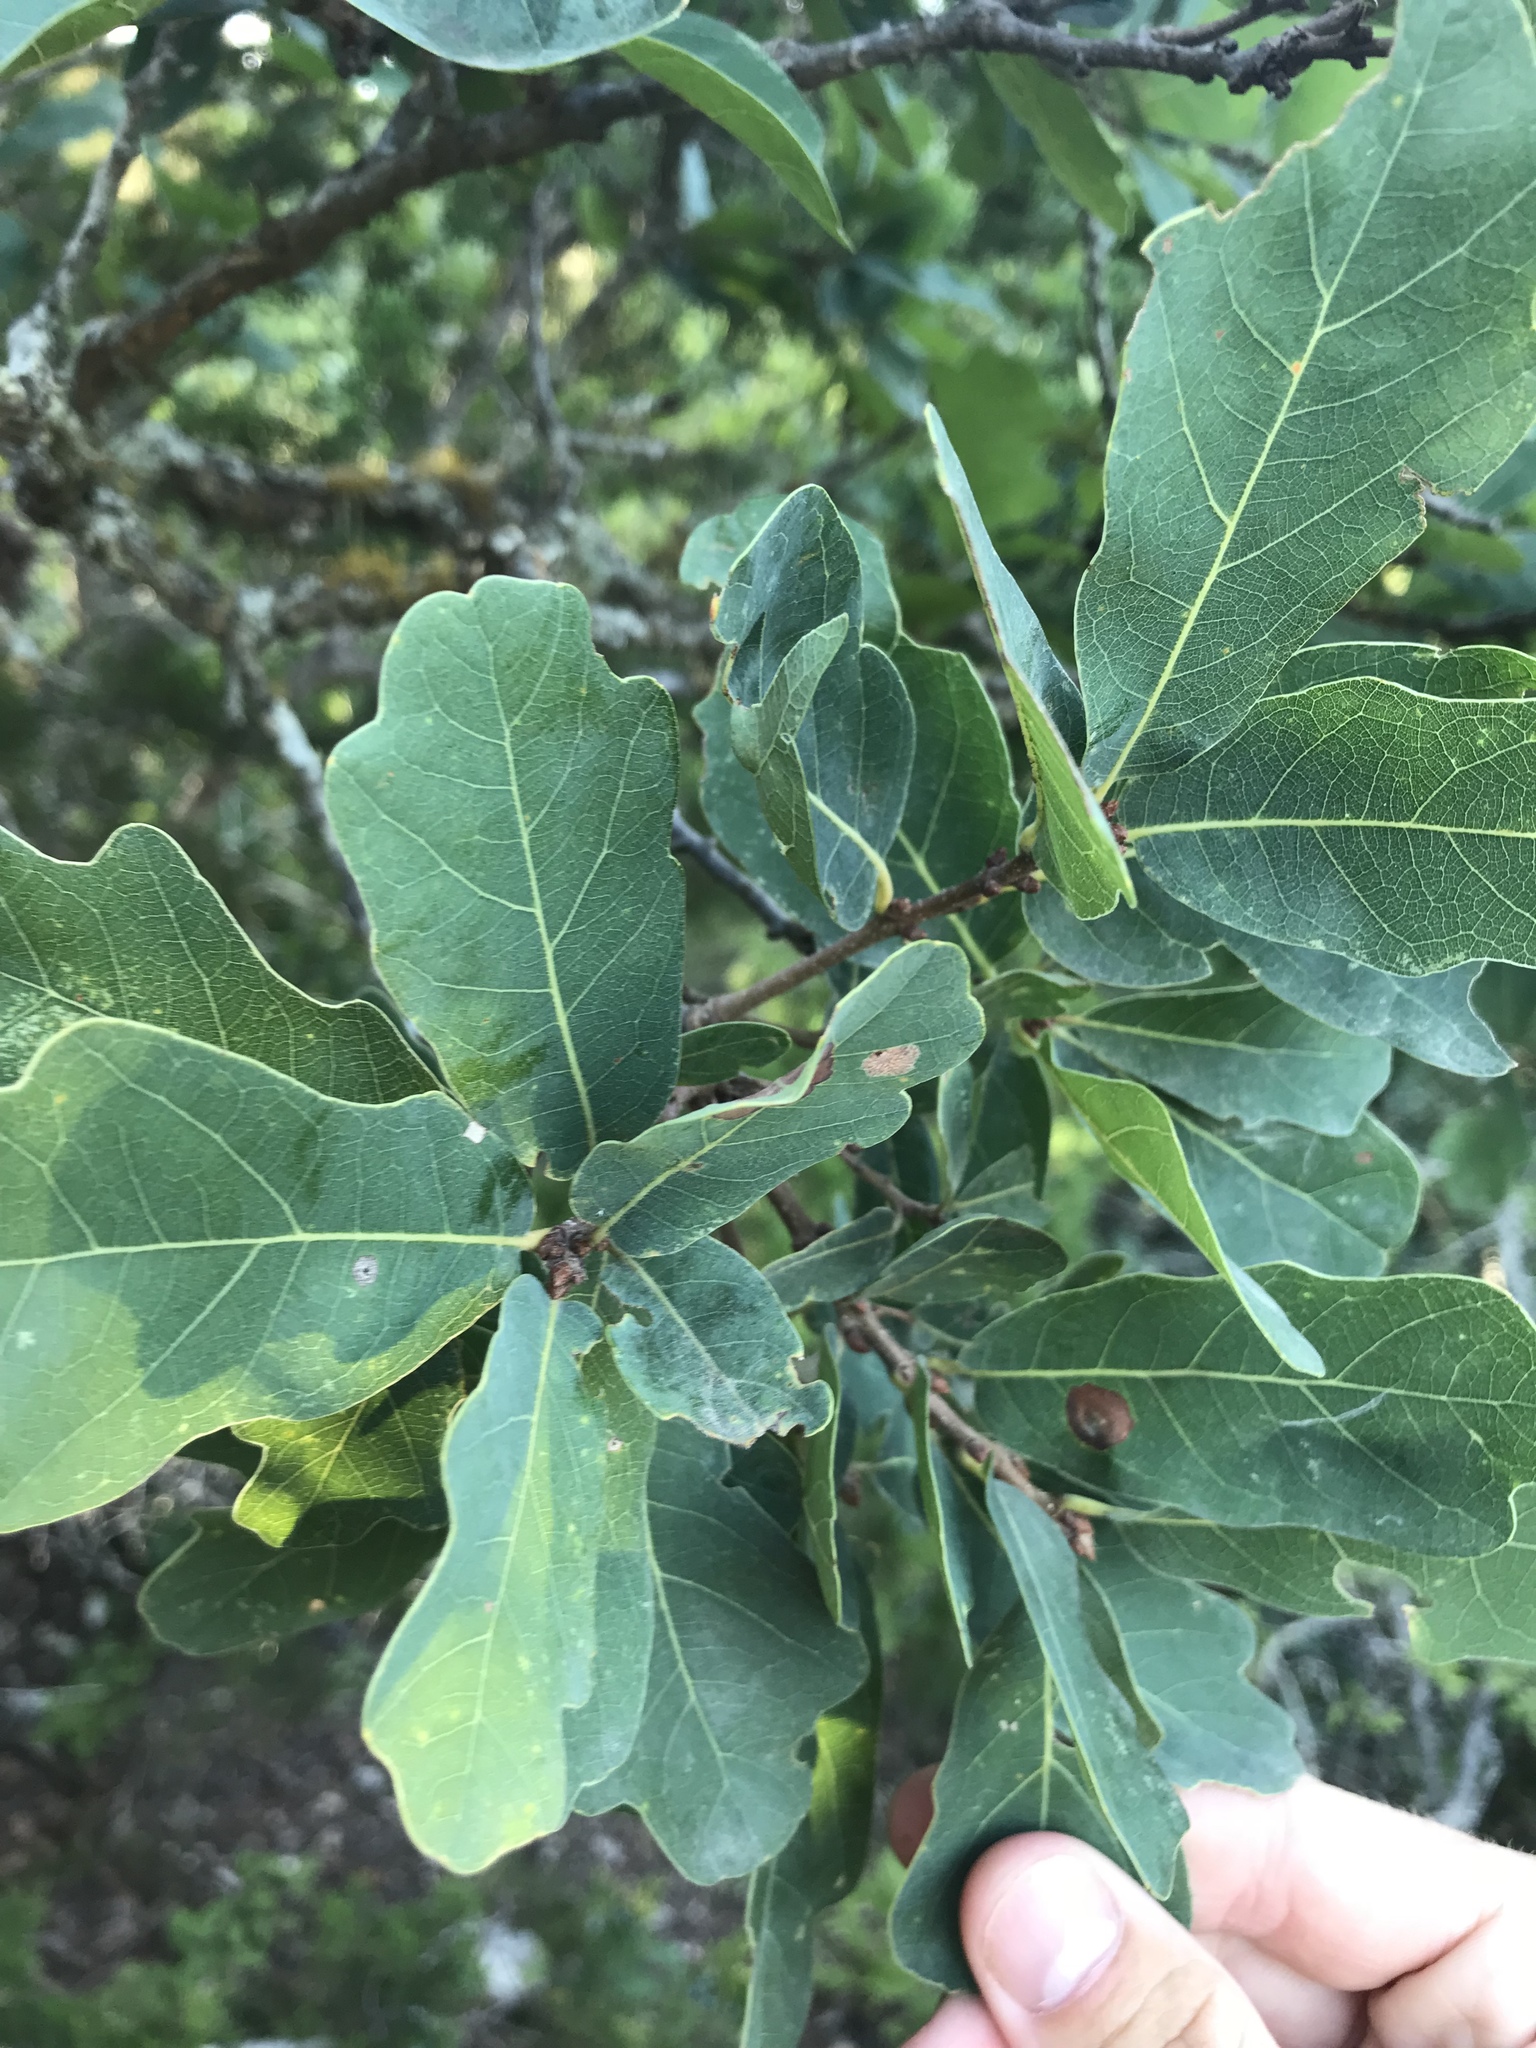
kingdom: Plantae
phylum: Tracheophyta
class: Magnoliopsida
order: Fagales
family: Fagaceae
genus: Quercus
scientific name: Quercus laceyi
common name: Lacey oak
